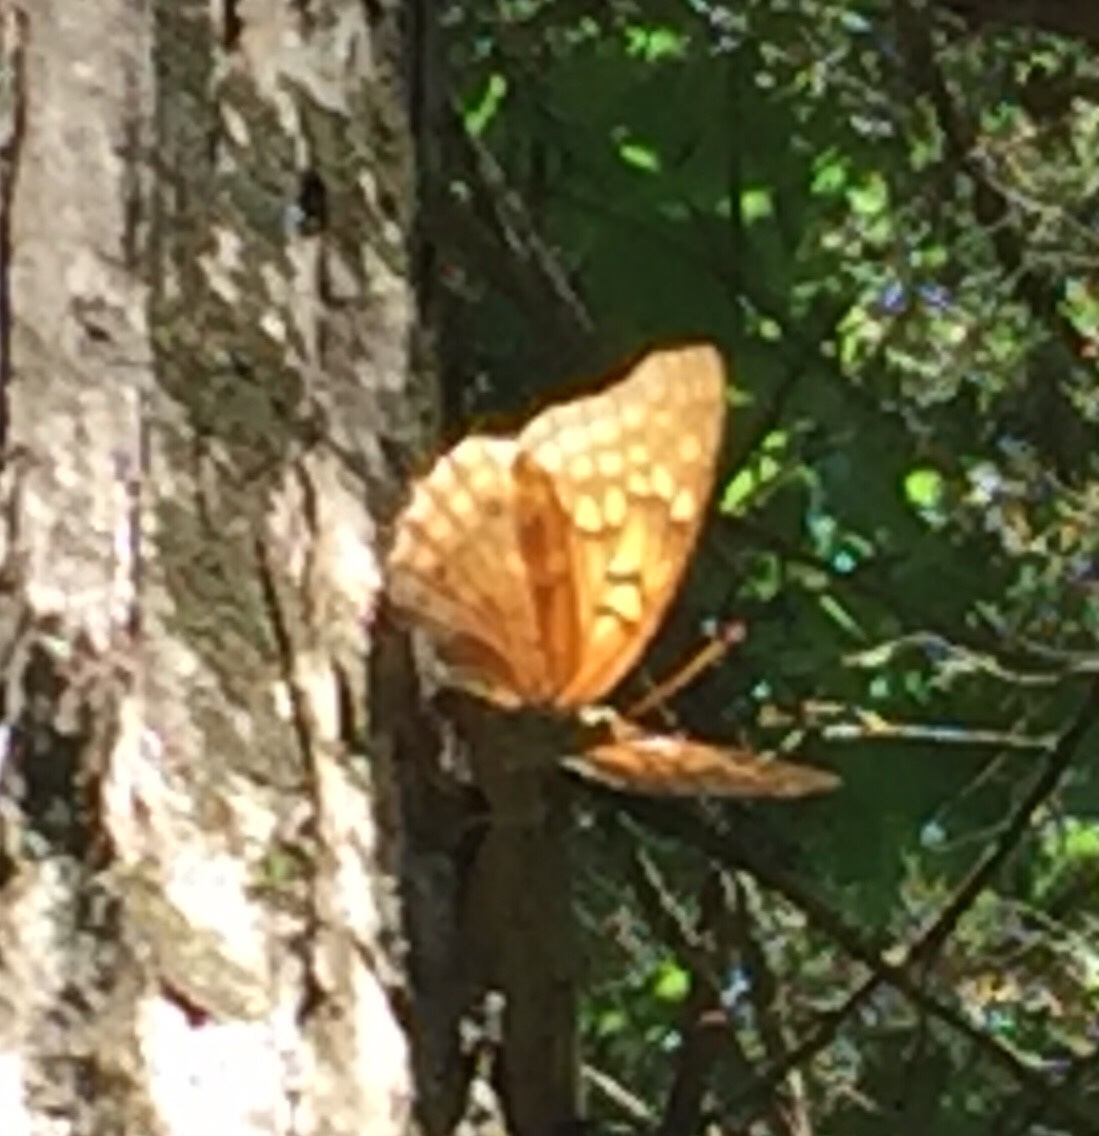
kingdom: Animalia
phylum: Arthropoda
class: Insecta
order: Lepidoptera
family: Nymphalidae
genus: Asterocampa
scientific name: Asterocampa clyton
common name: Tawny emperor
